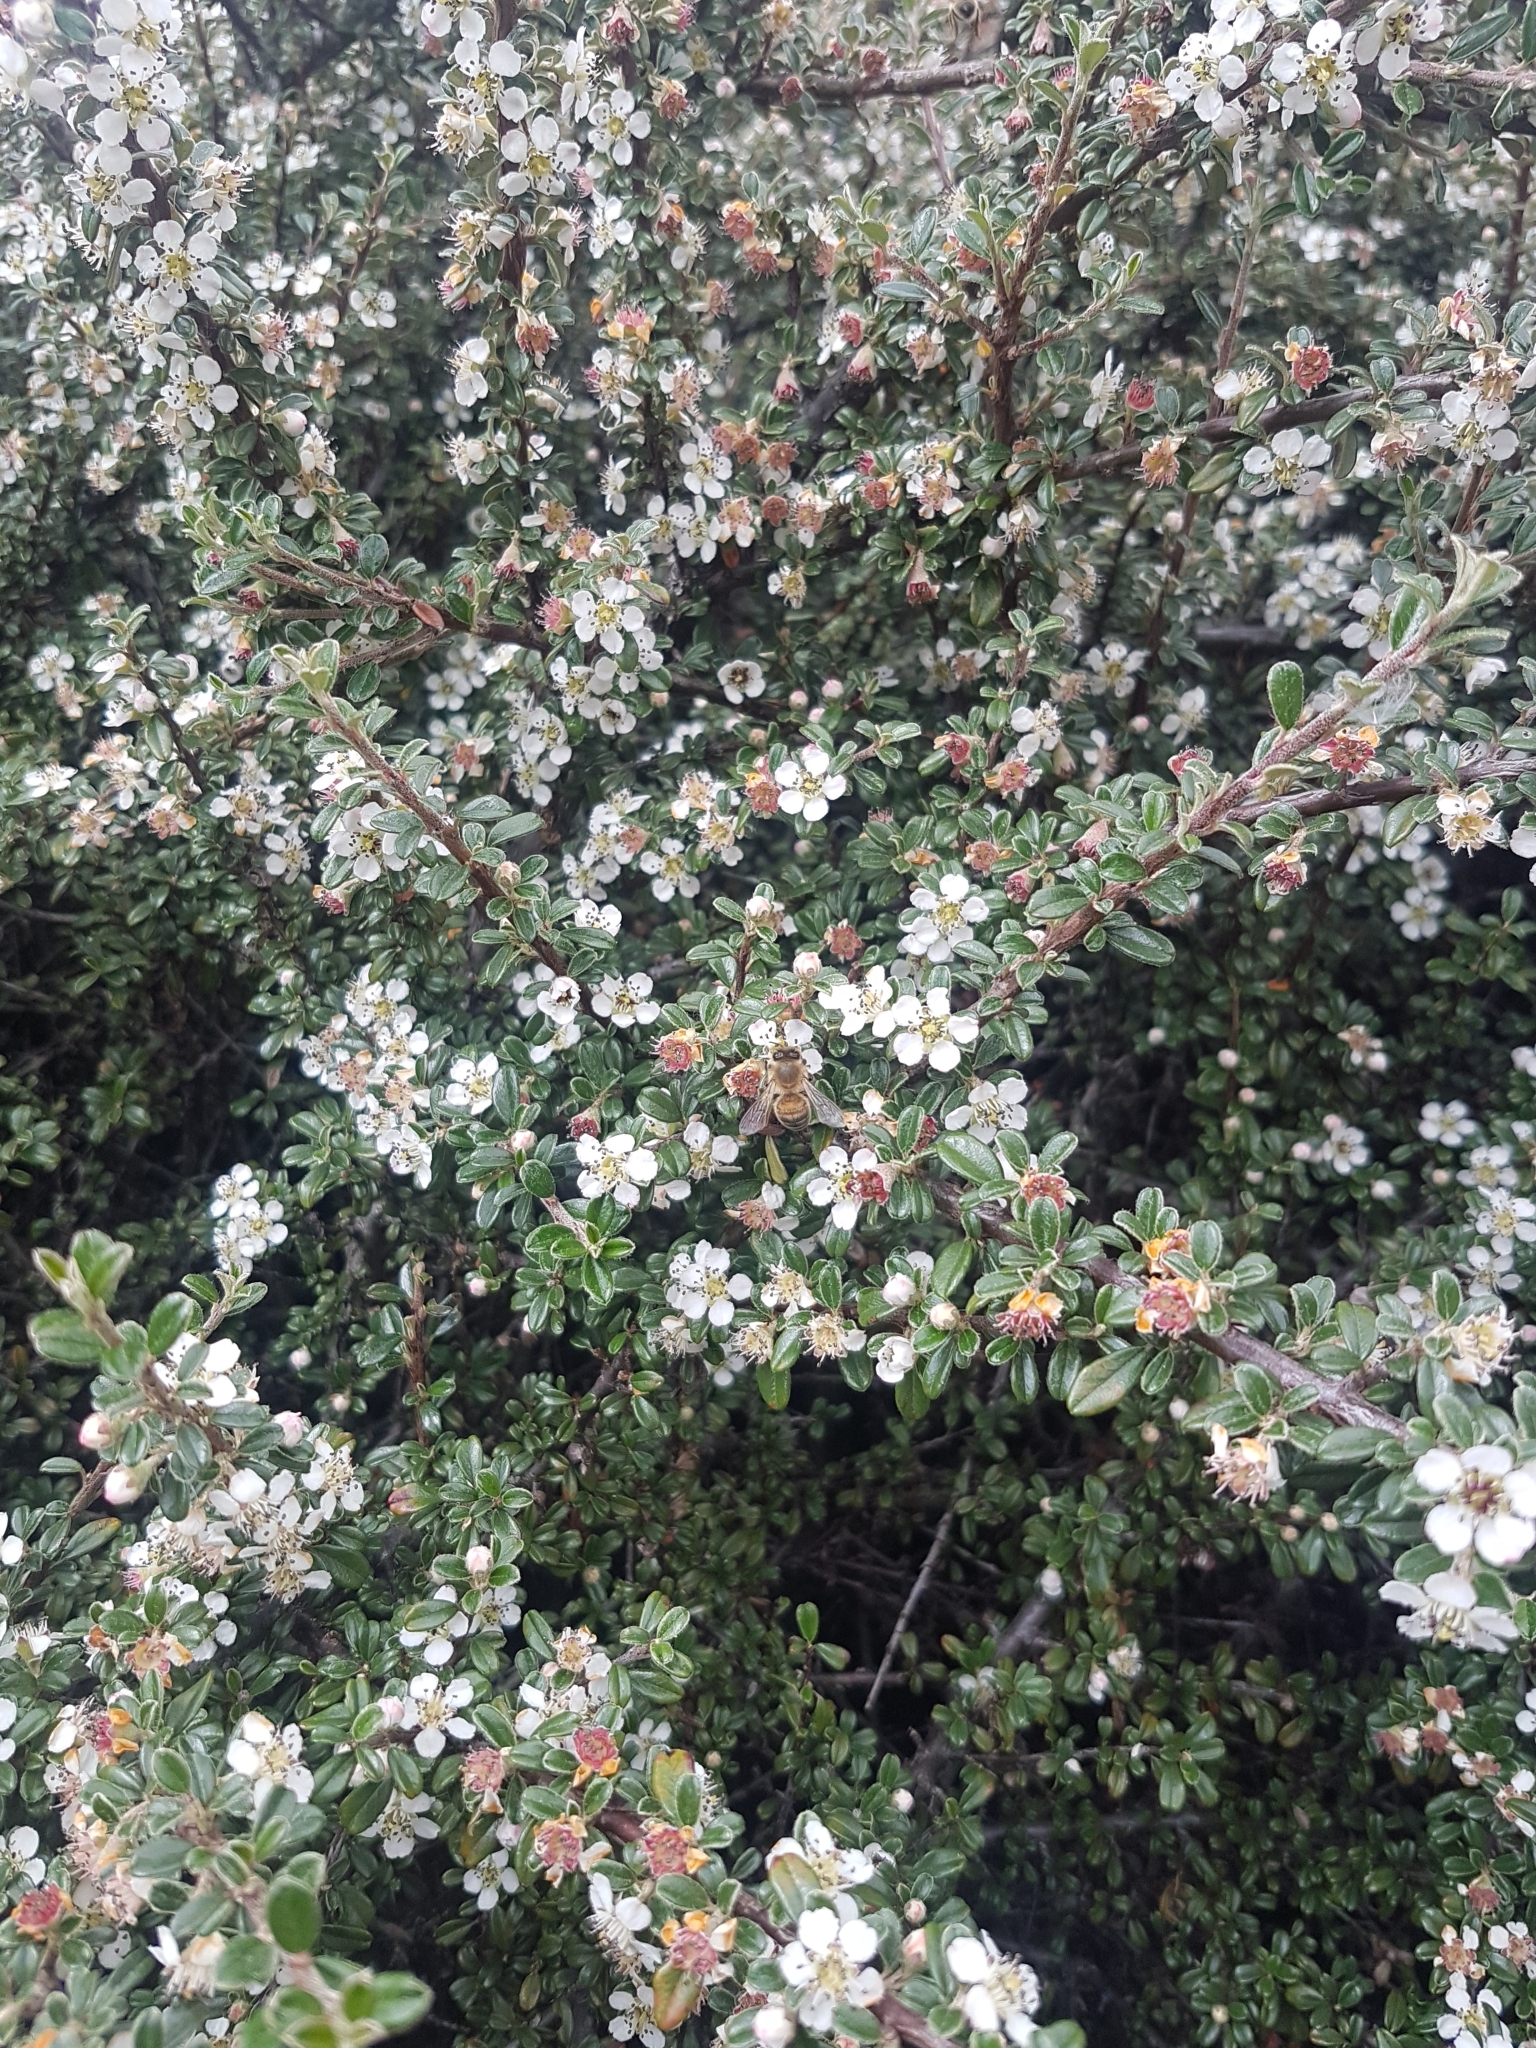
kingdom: Animalia
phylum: Arthropoda
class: Insecta
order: Hymenoptera
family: Apidae
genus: Apis
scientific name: Apis mellifera
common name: Honey bee
